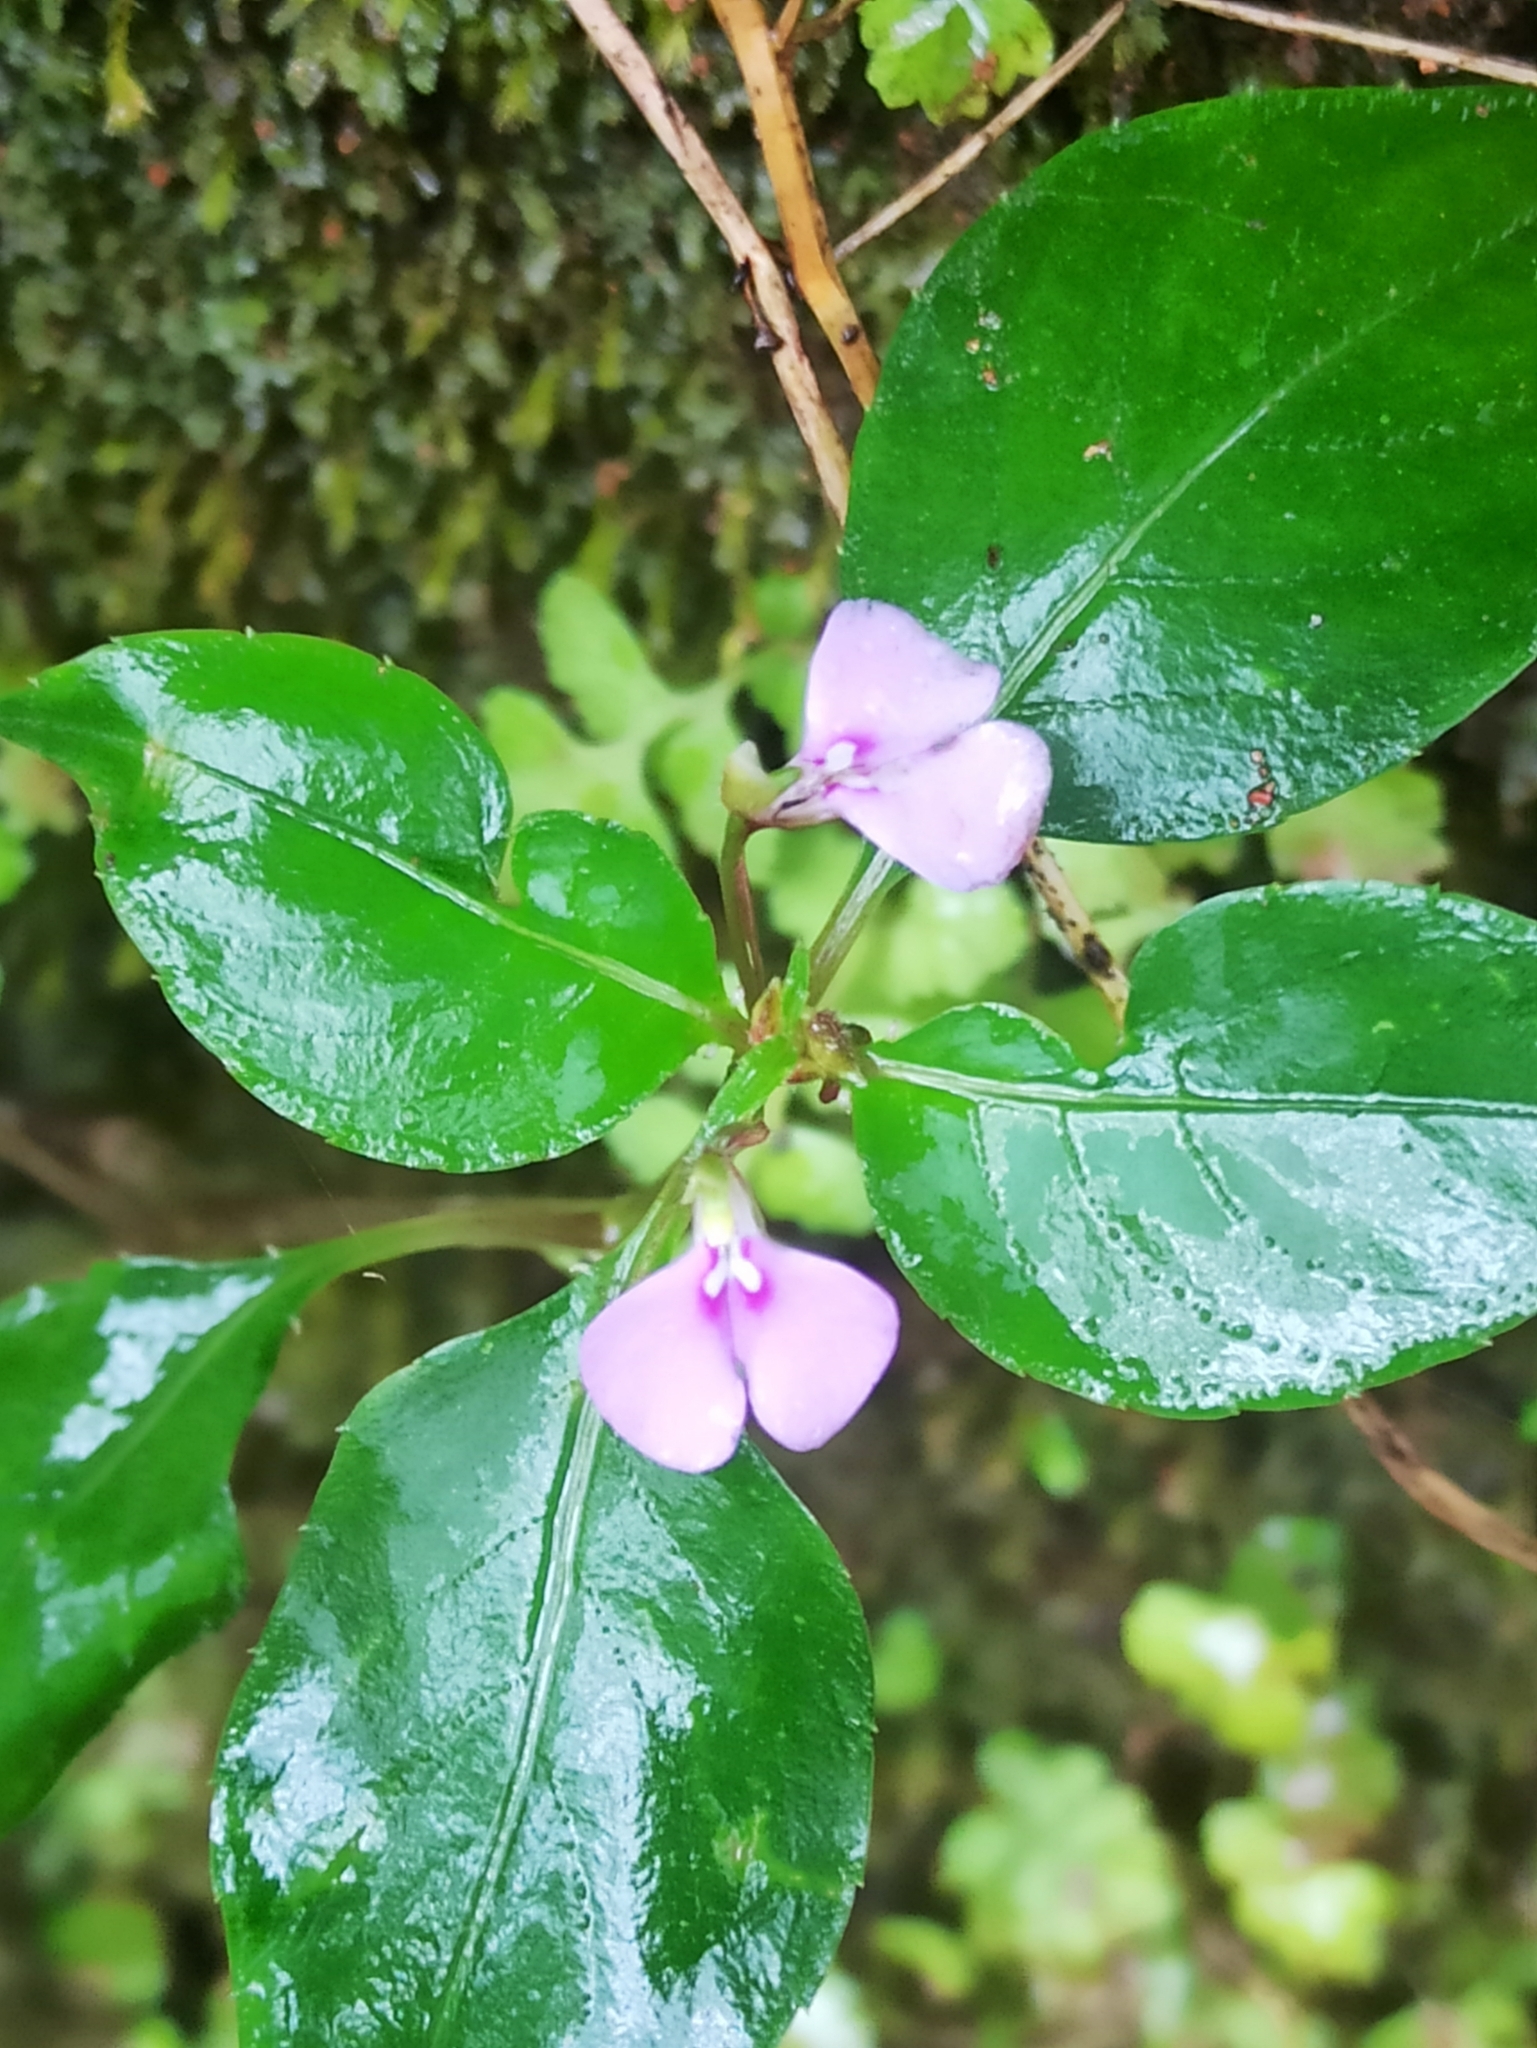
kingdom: Plantae
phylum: Tracheophyta
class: Magnoliopsida
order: Ericales
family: Balsaminaceae
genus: Impatiens
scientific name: Impatiens minor
